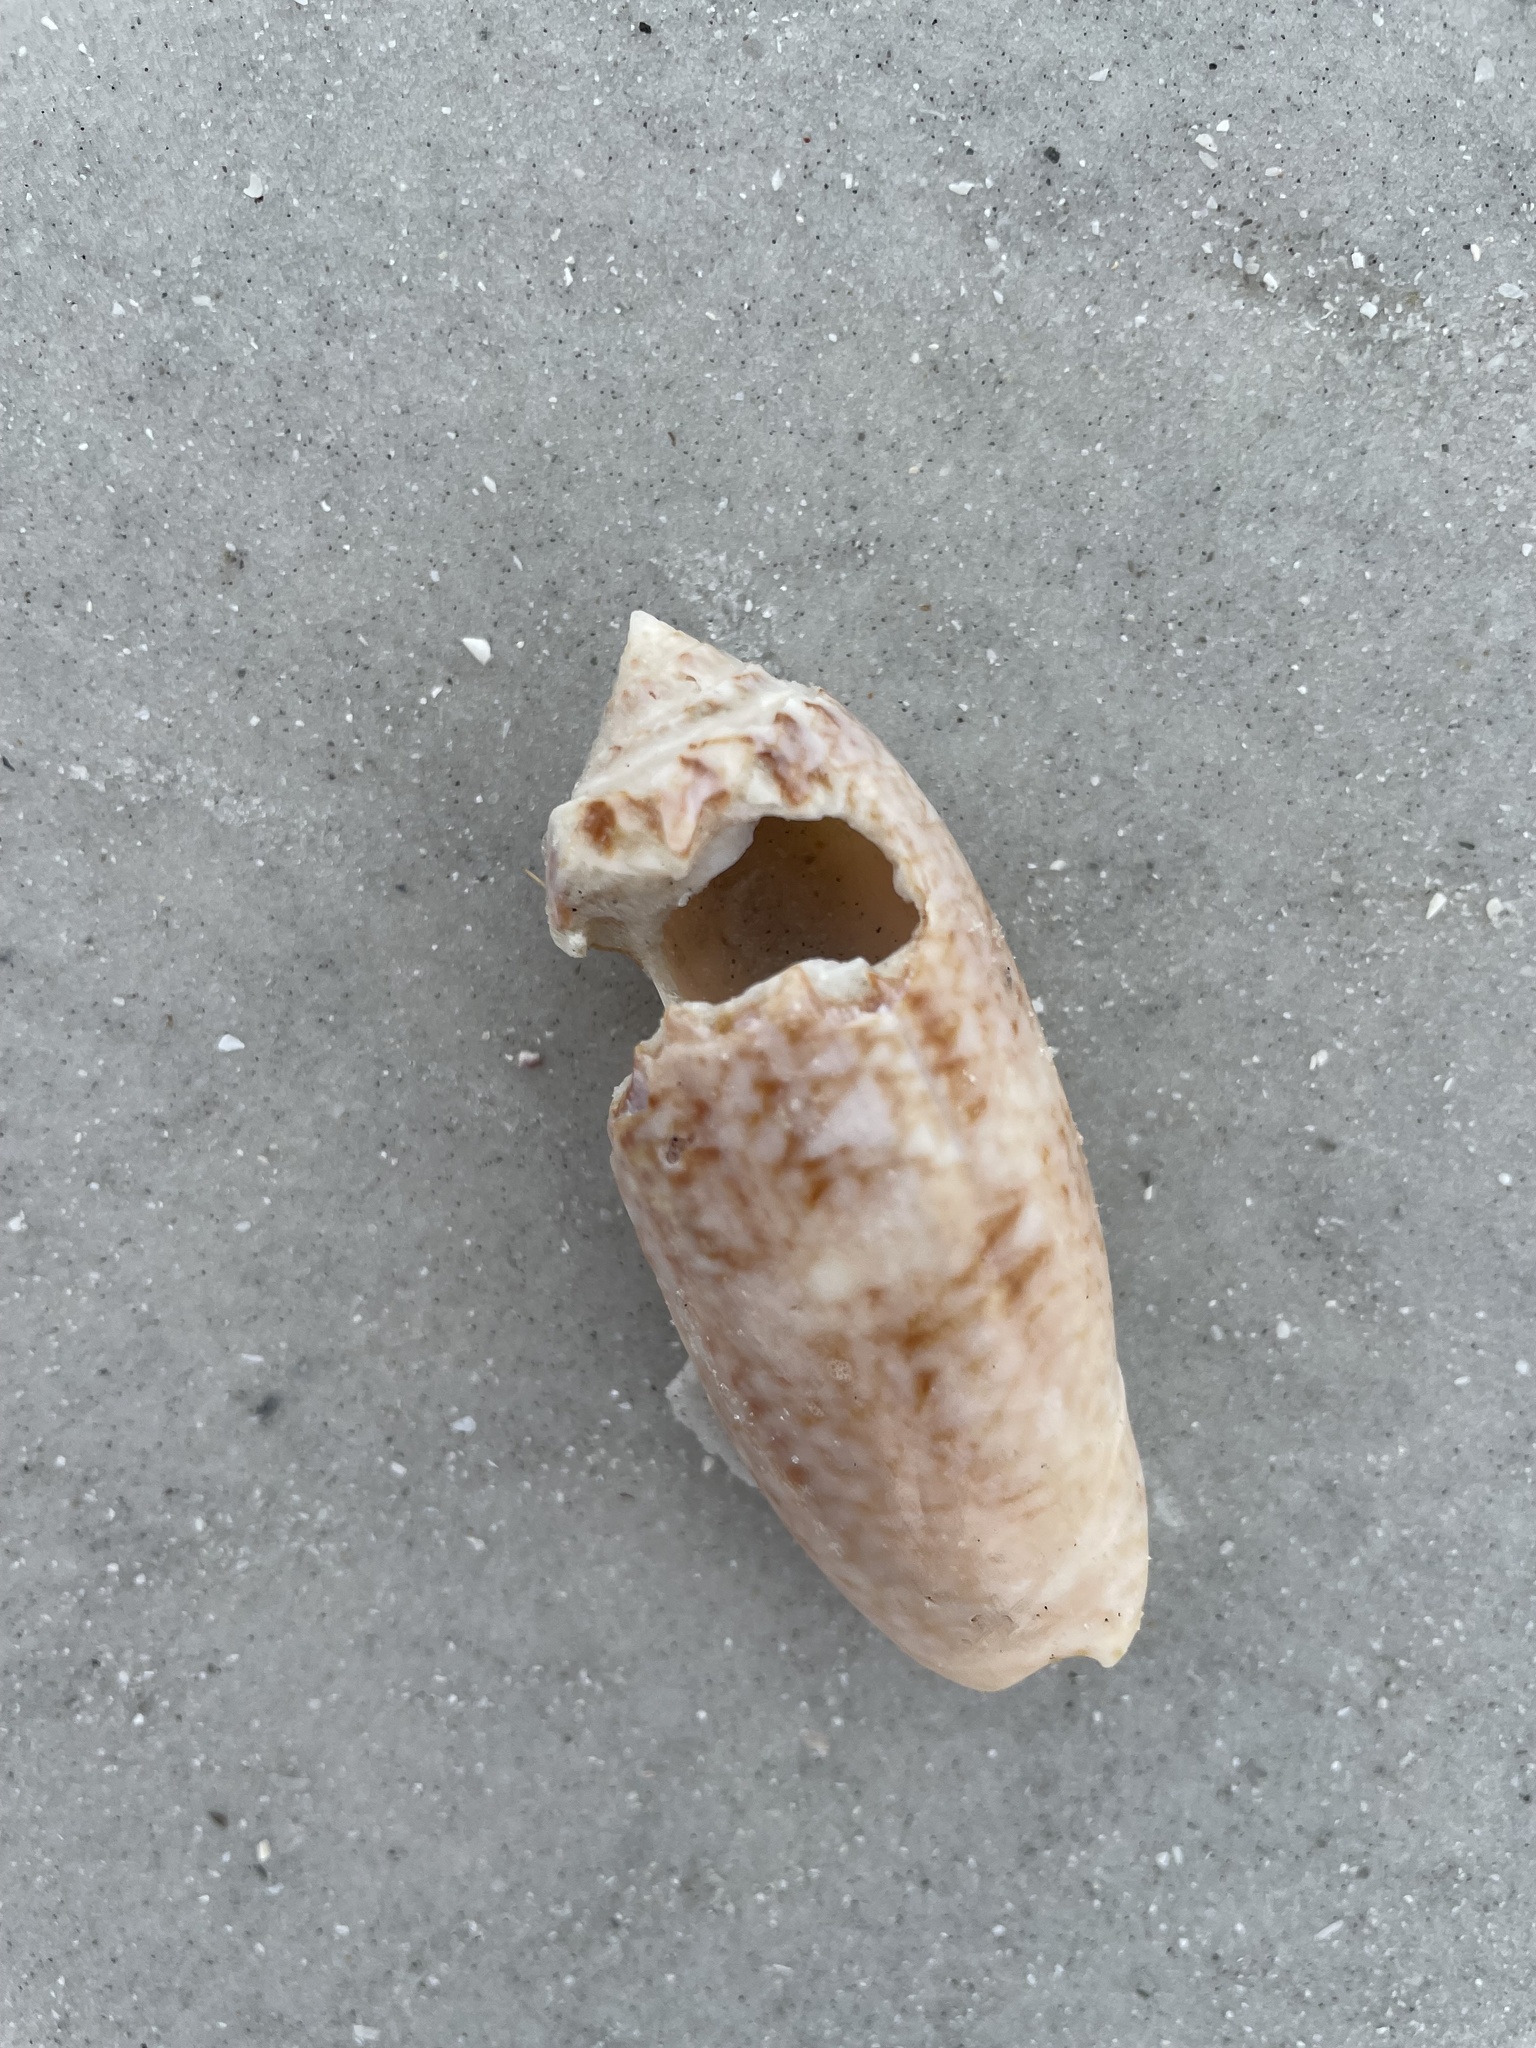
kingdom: Animalia
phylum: Mollusca
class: Gastropoda
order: Neogastropoda
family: Olividae
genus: Oliva
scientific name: Oliva sayana
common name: Lettered olive
